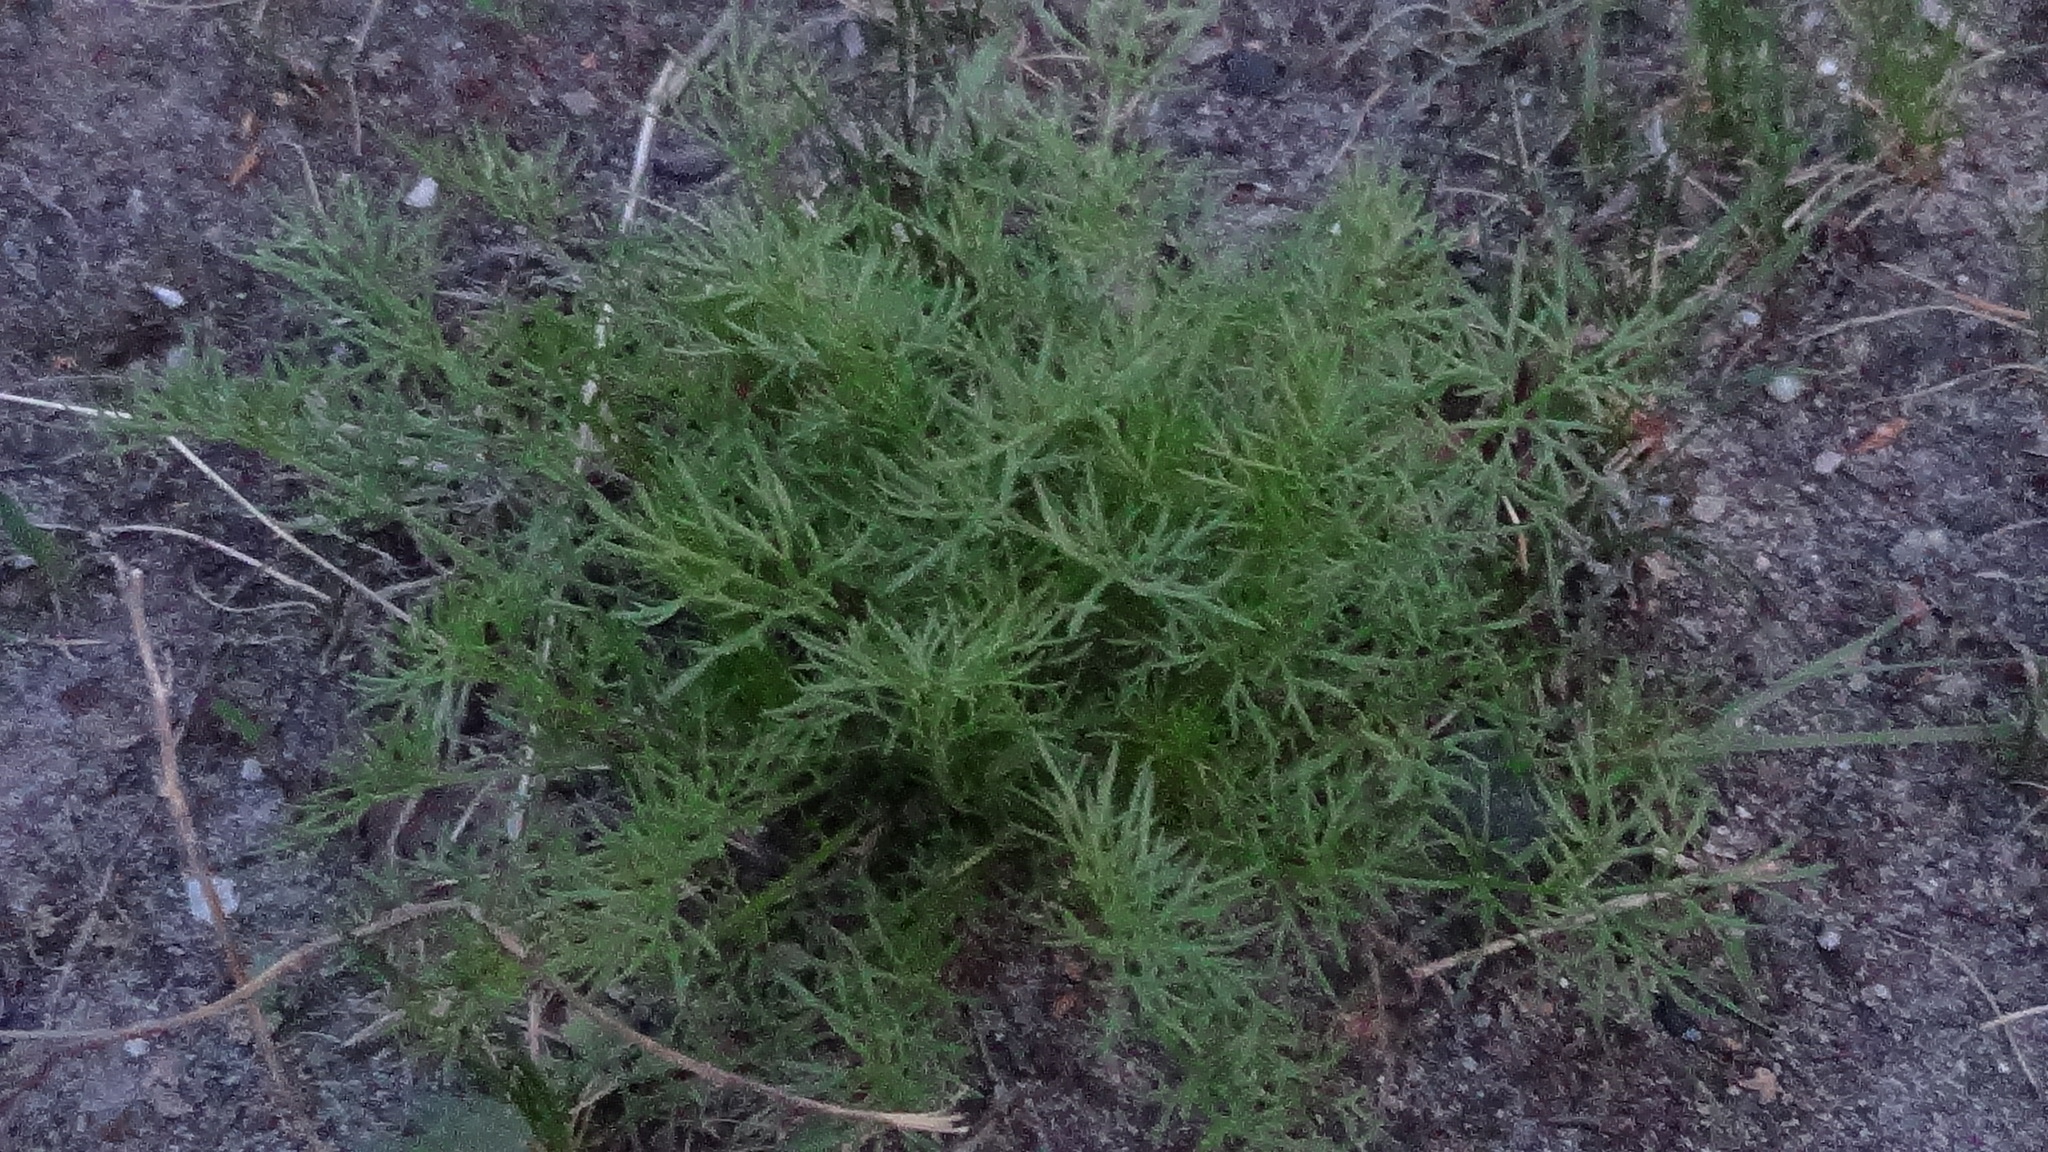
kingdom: Plantae
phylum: Tracheophyta
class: Magnoliopsida
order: Asterales
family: Asteraceae
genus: Tripleurospermum
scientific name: Tripleurospermum inodorum
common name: Scentless mayweed
